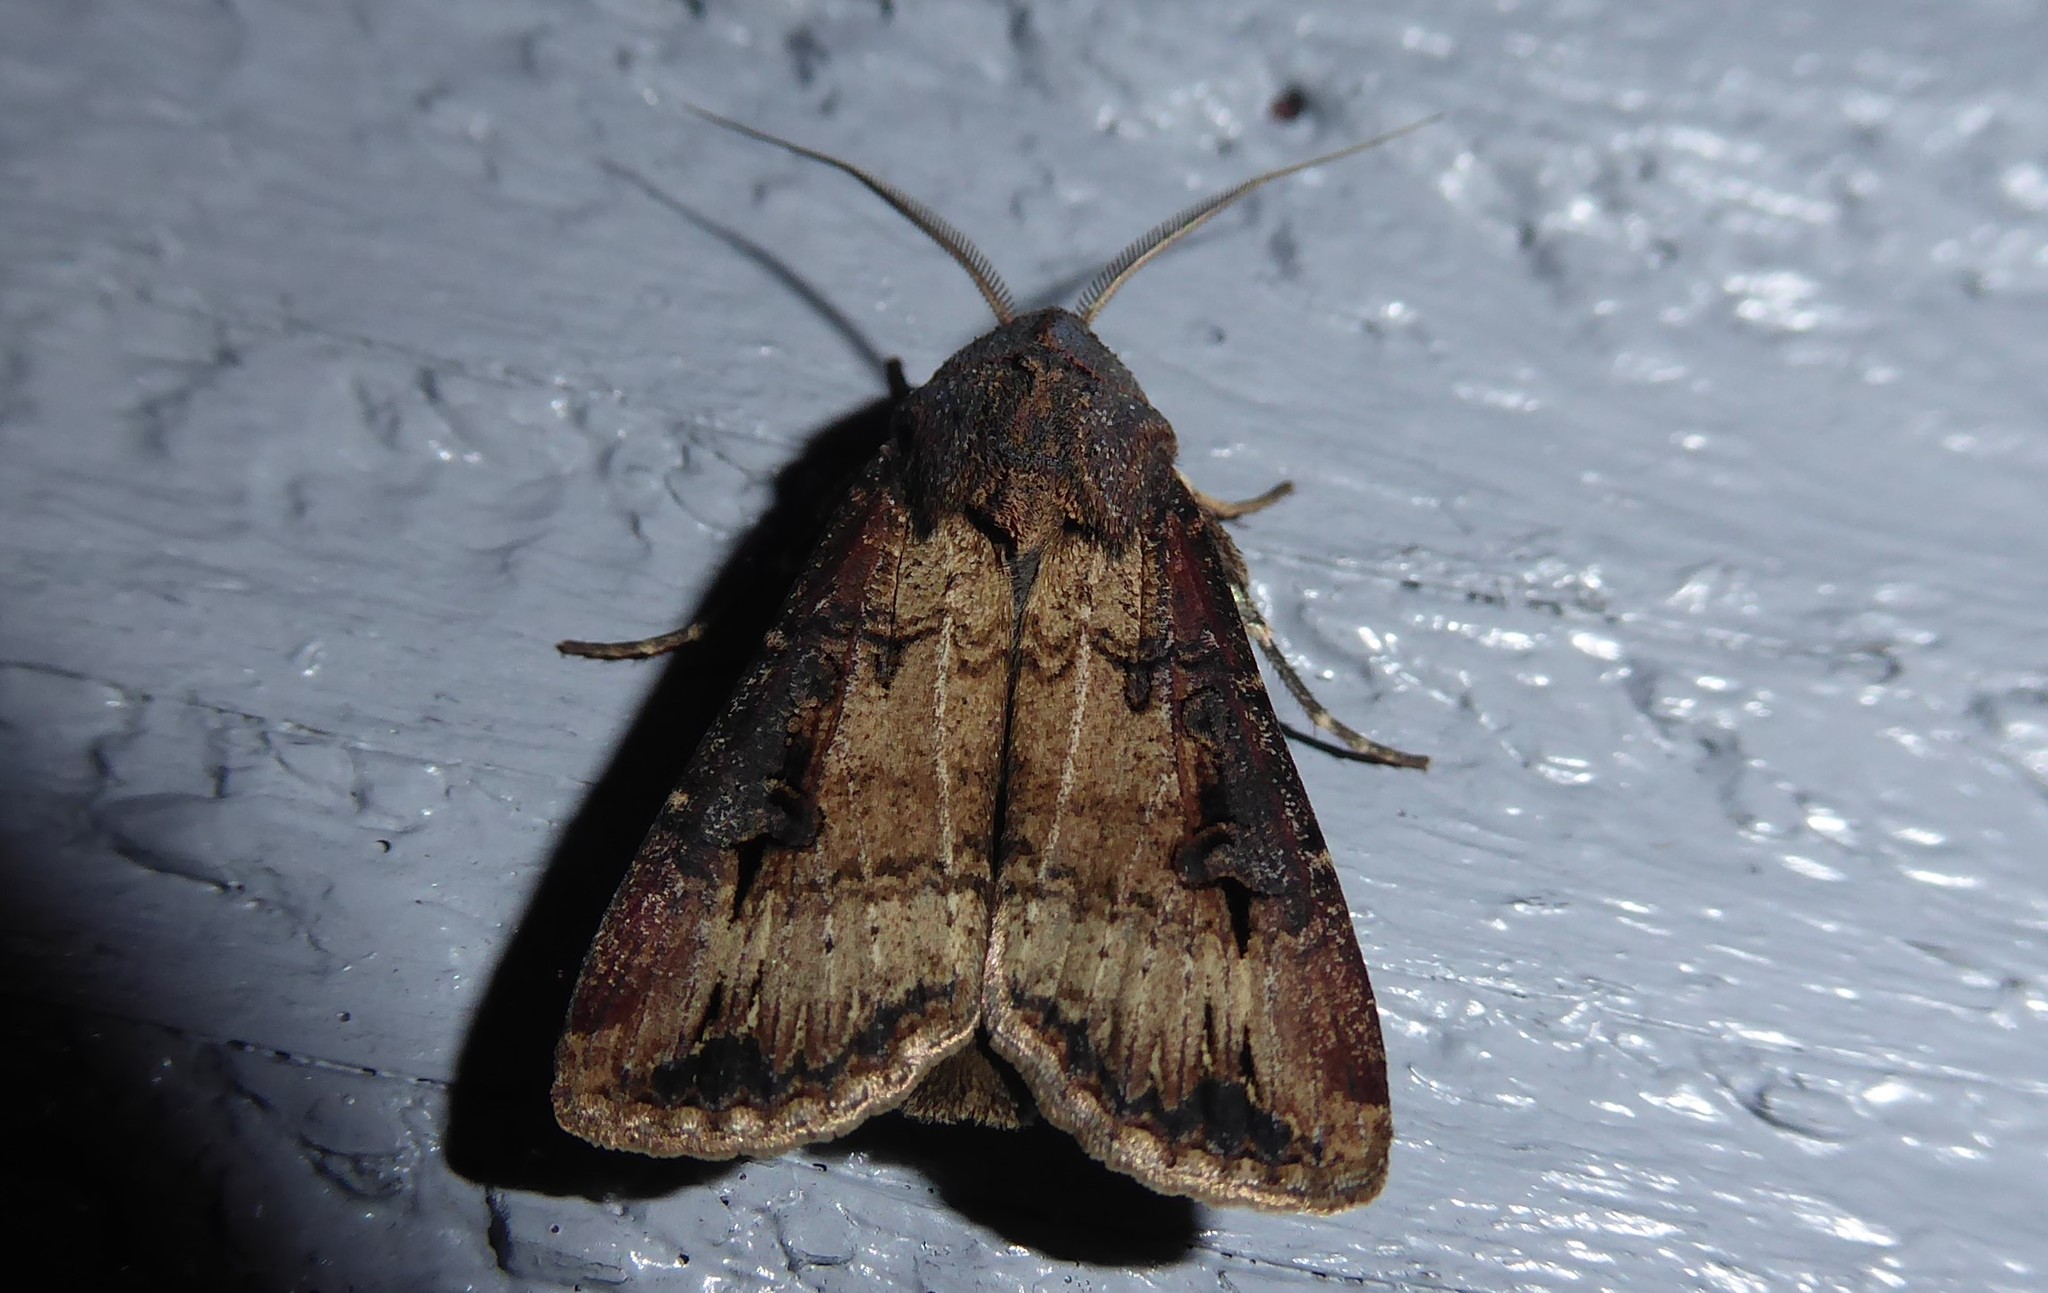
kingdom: Animalia
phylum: Arthropoda
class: Insecta
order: Lepidoptera
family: Noctuidae
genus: Agrotis
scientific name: Agrotis ipsilon
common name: Dark sword-grass
